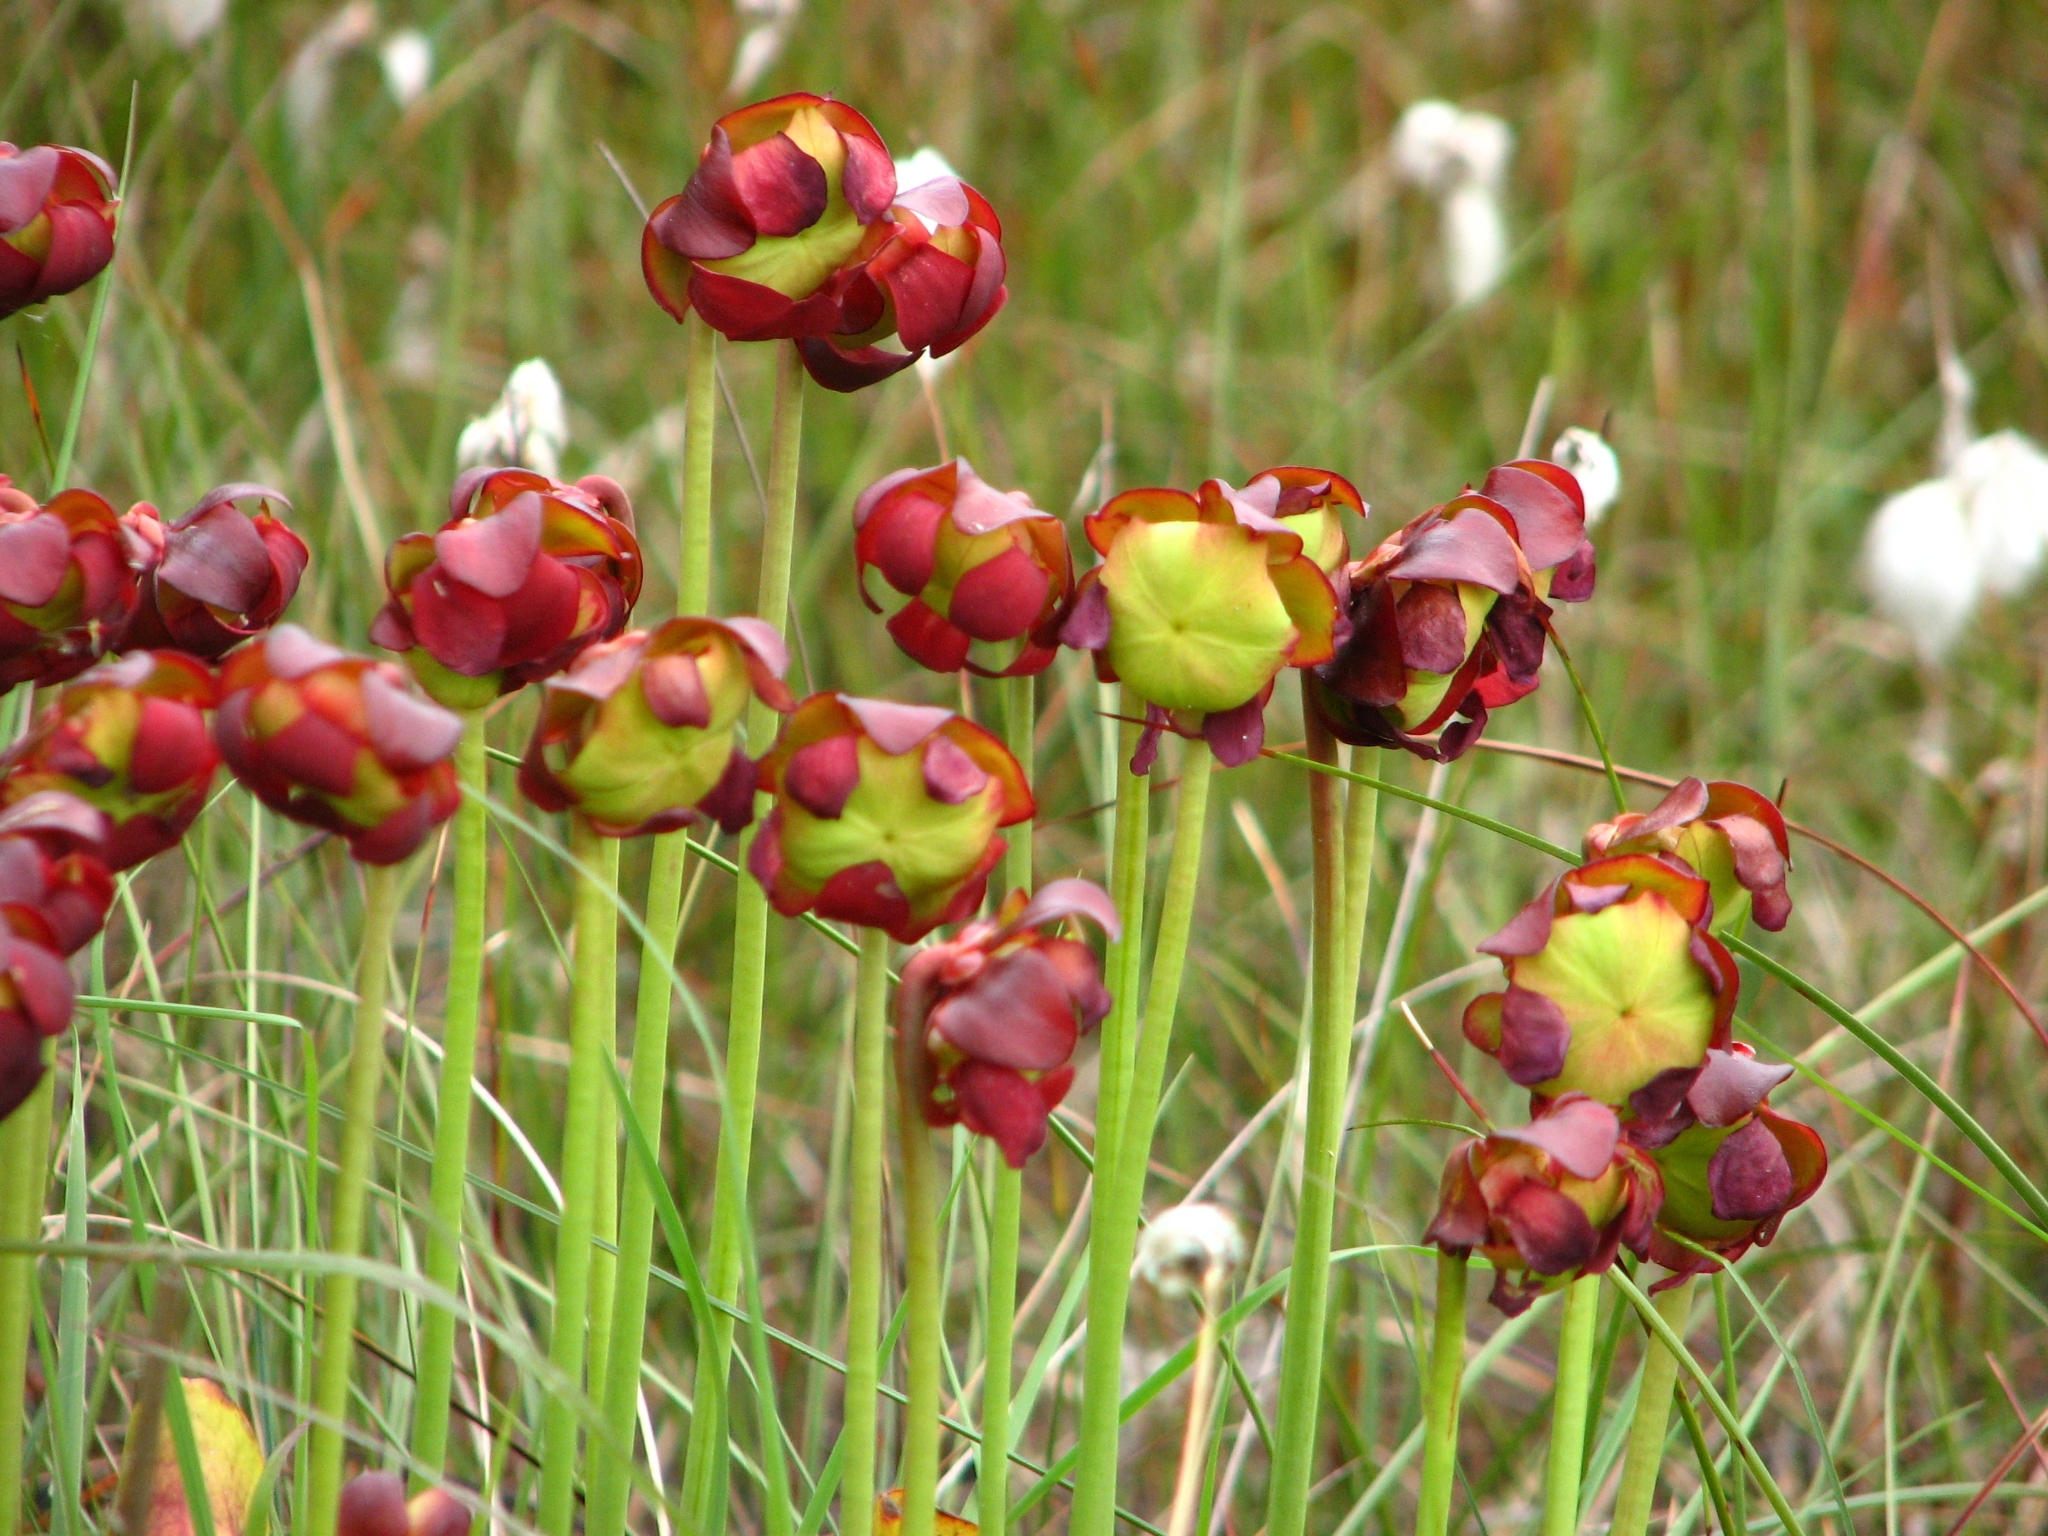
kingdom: Plantae
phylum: Tracheophyta
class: Magnoliopsida
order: Ericales
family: Sarraceniaceae
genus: Sarracenia
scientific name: Sarracenia purpurea
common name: Pitcherplant
